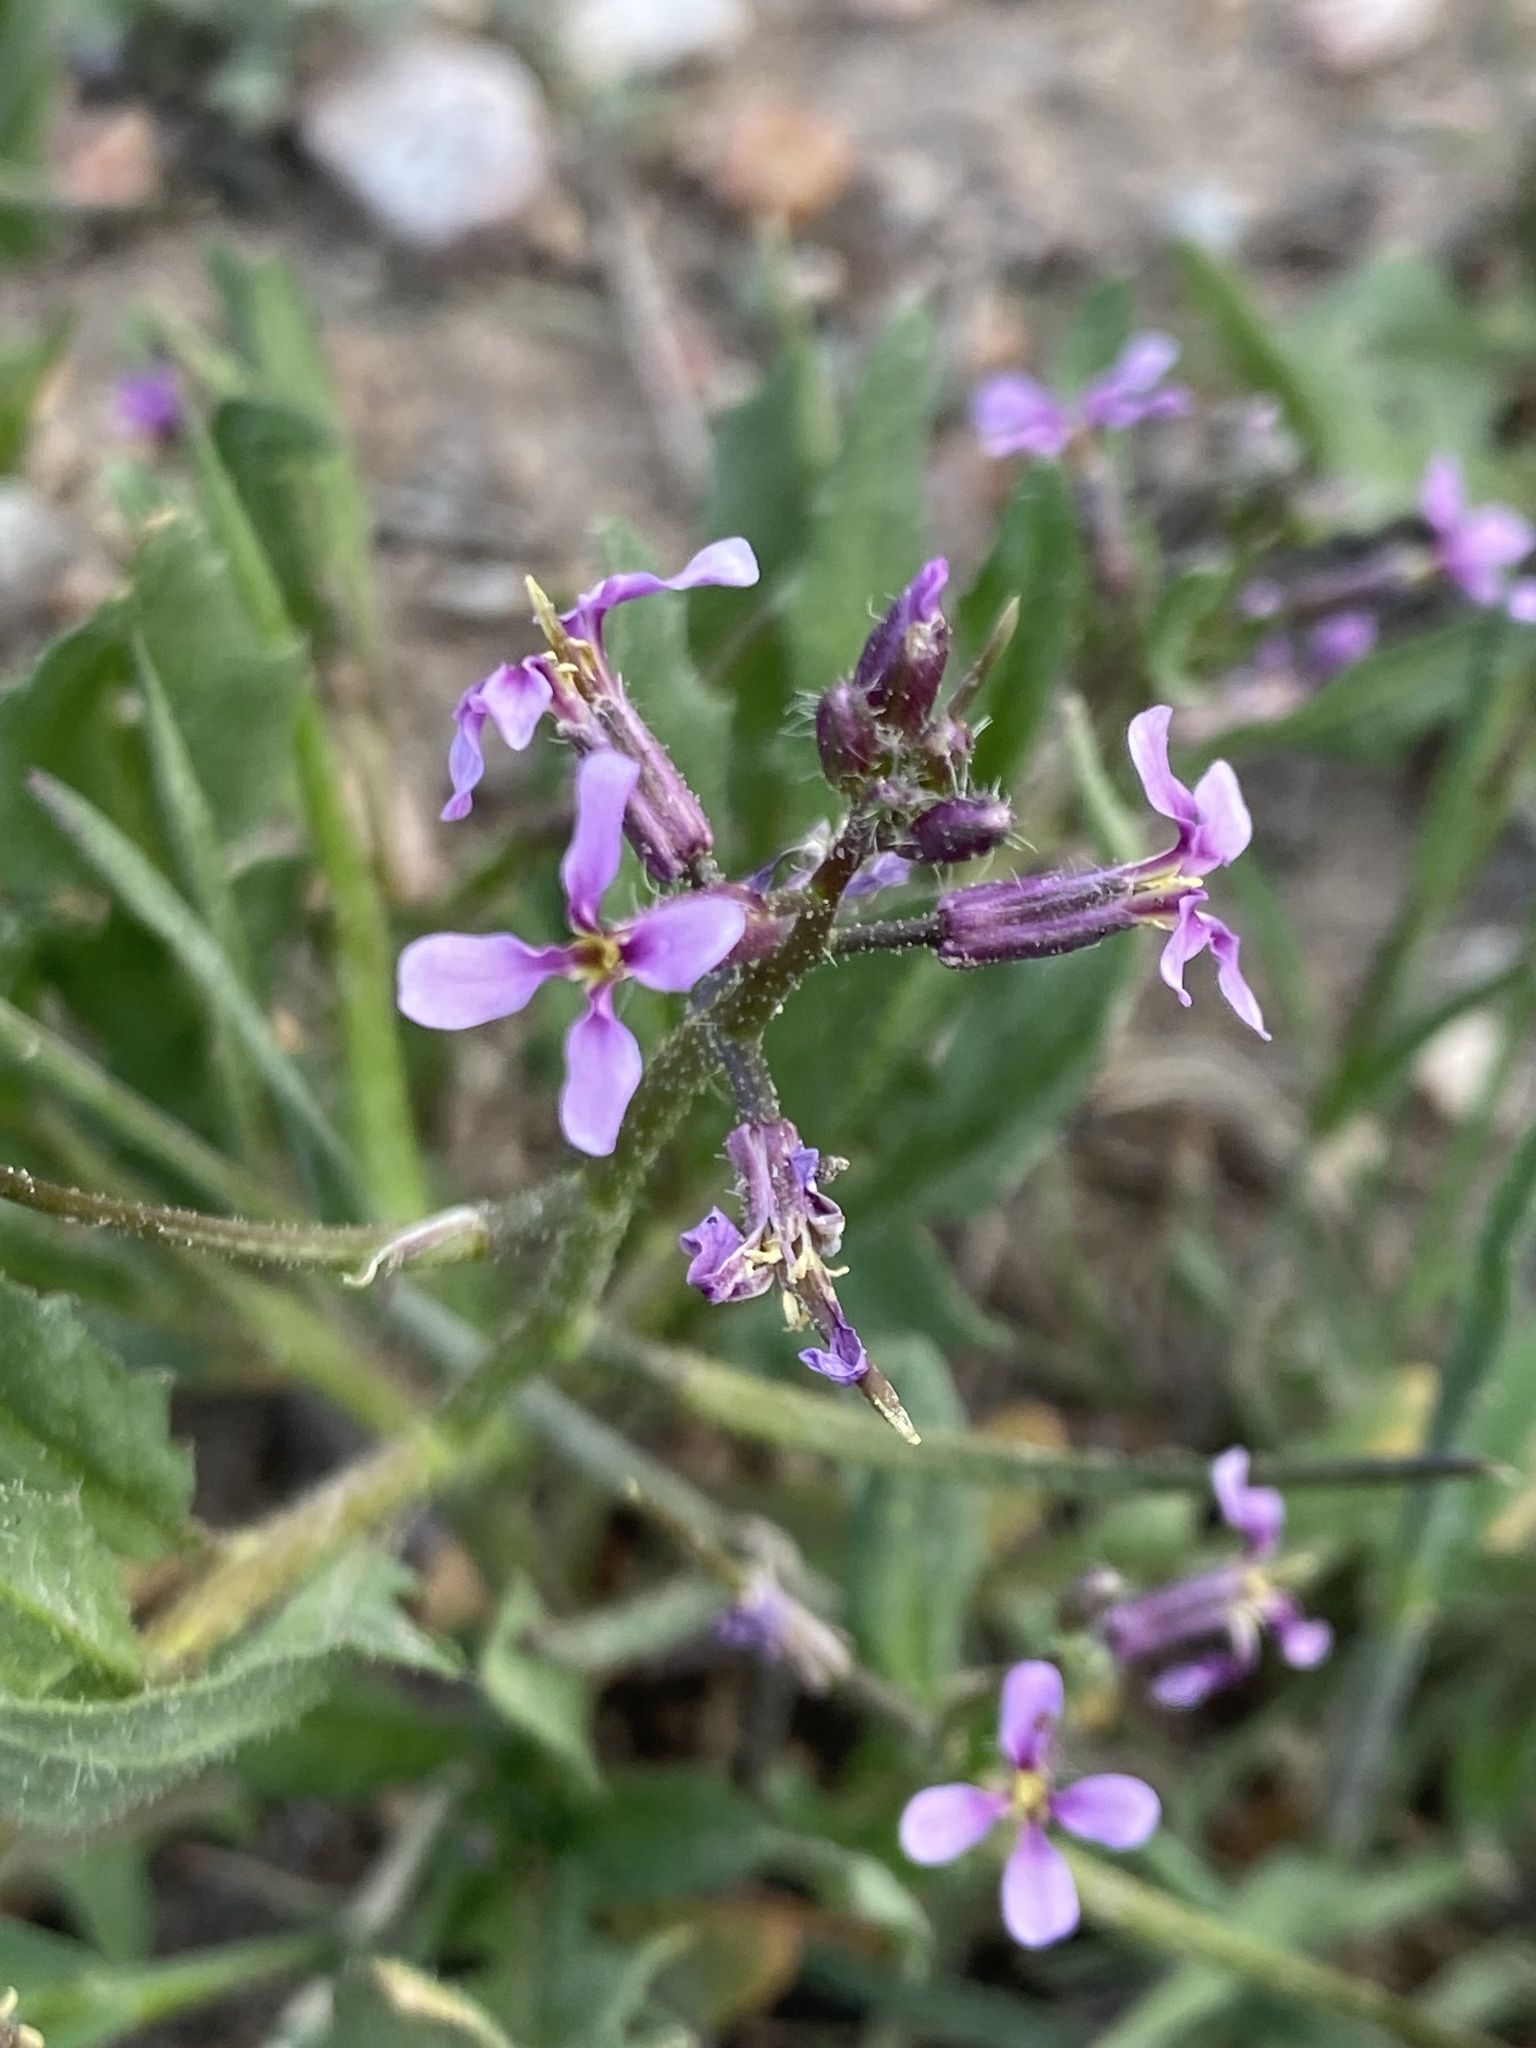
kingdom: Plantae
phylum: Tracheophyta
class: Magnoliopsida
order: Brassicales
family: Brassicaceae
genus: Chorispora
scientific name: Chorispora tenella
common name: Crossflower
